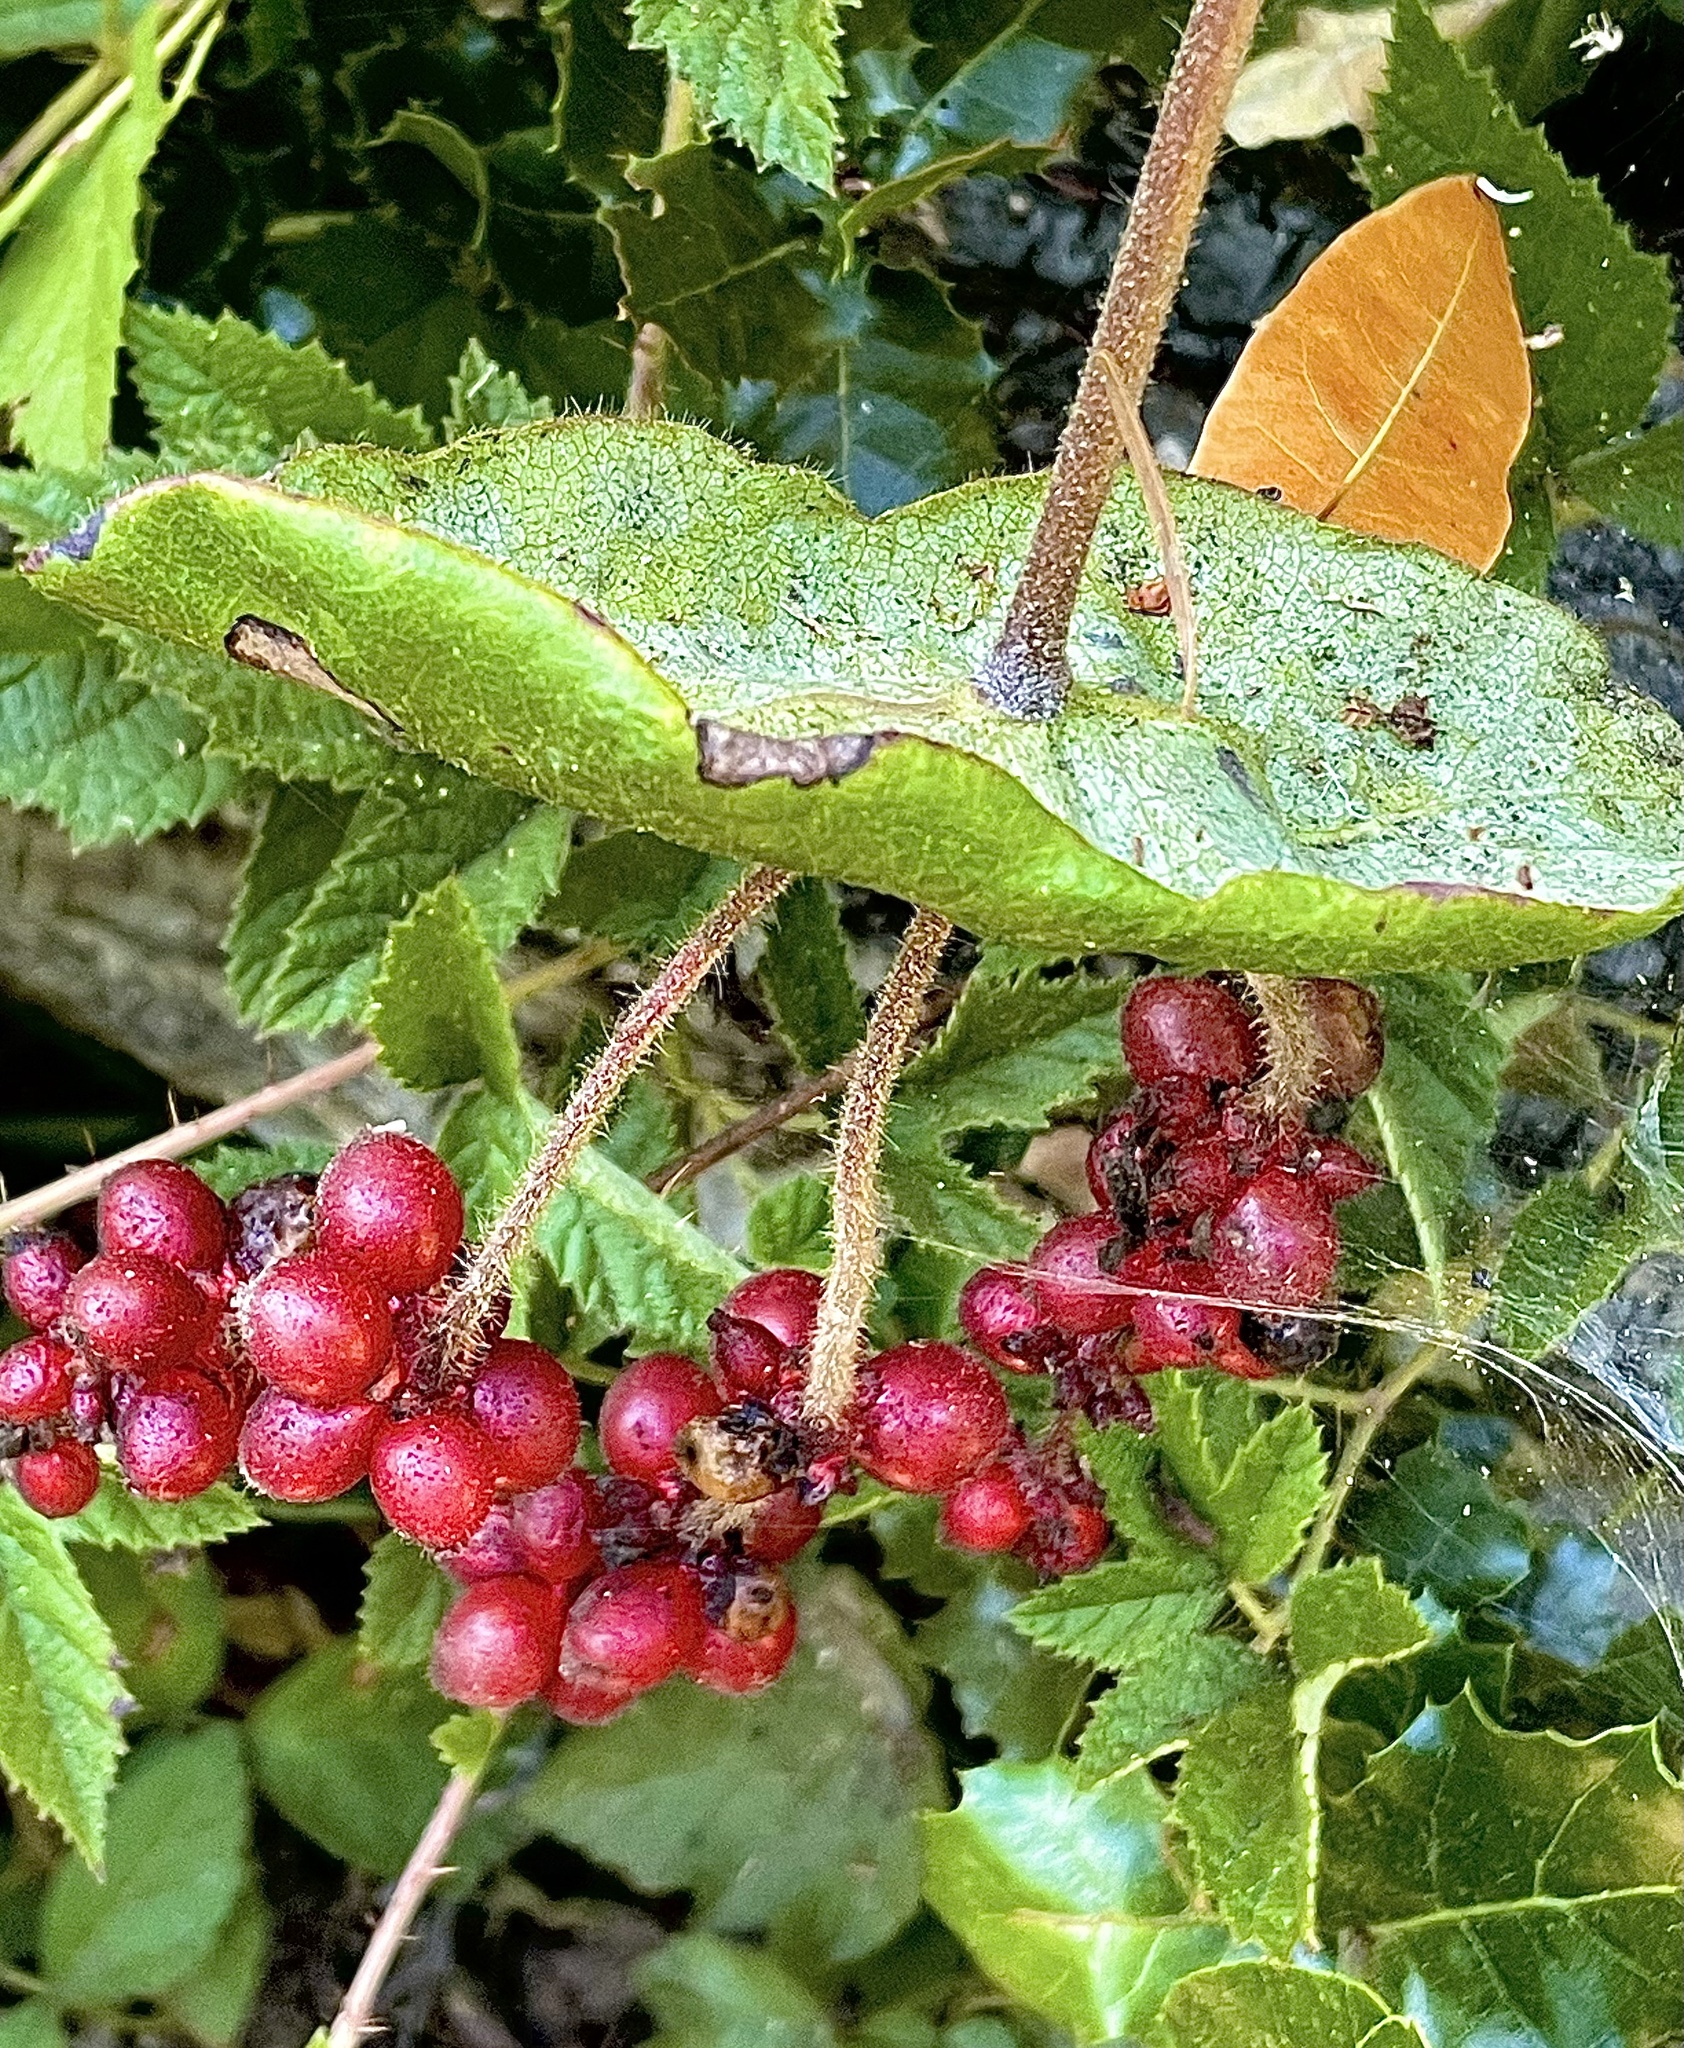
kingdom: Plantae
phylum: Tracheophyta
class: Magnoliopsida
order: Dipsacales
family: Caprifoliaceae
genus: Lonicera
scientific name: Lonicera hispidula
